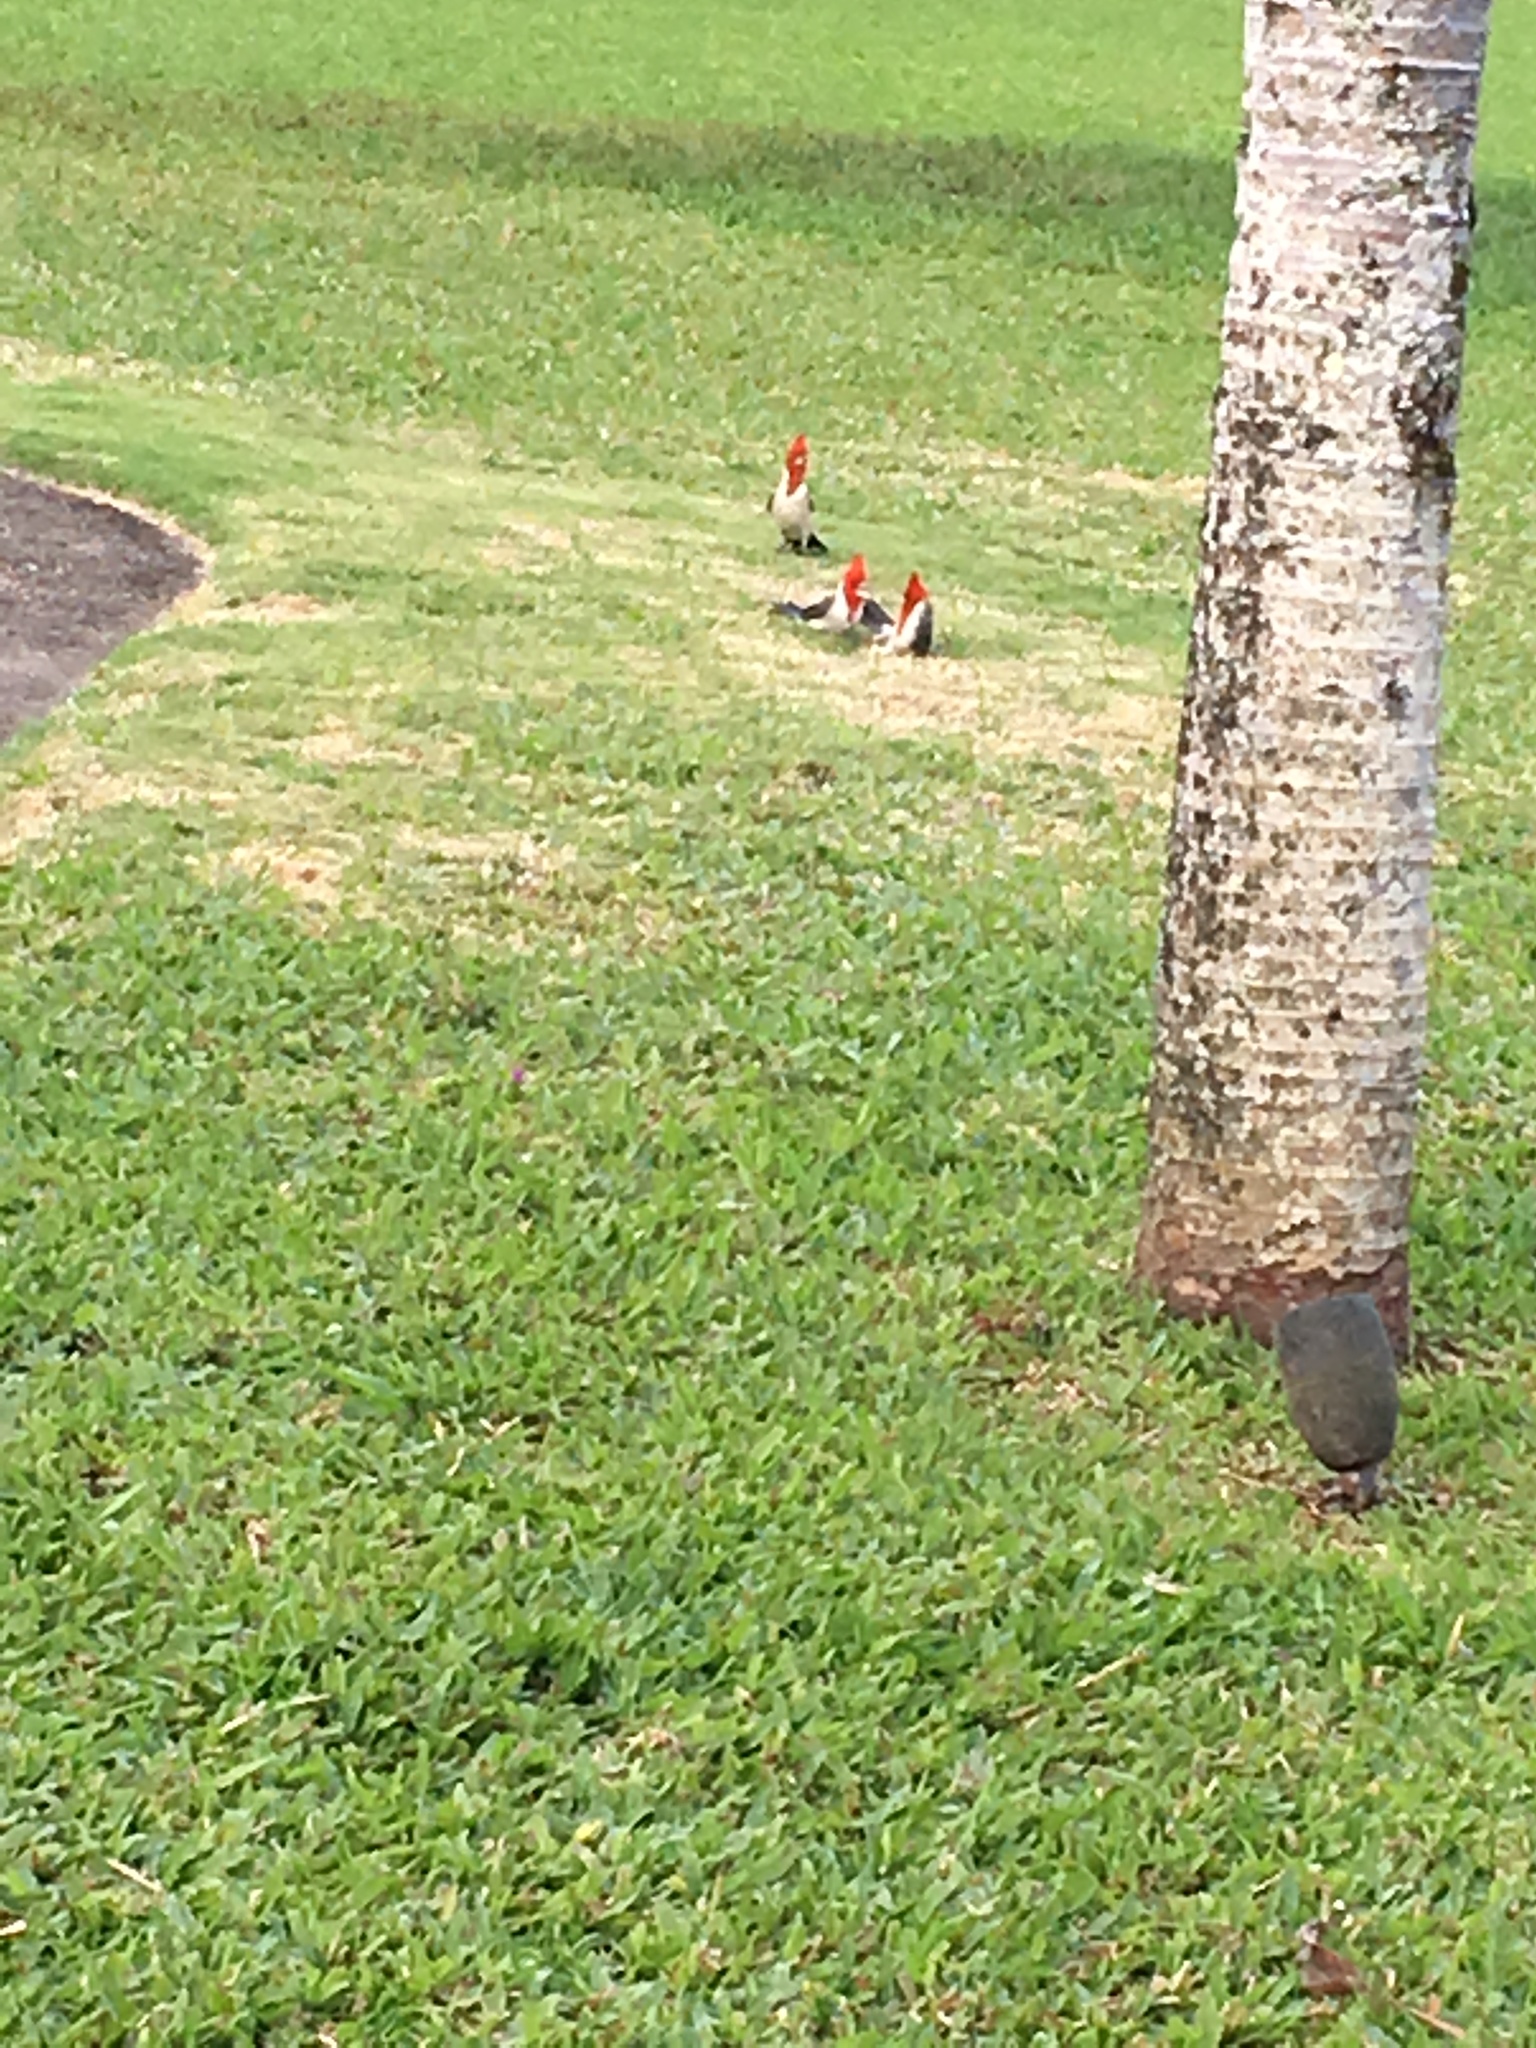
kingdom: Animalia
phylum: Chordata
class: Aves
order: Passeriformes
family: Thraupidae
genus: Paroaria
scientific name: Paroaria coronata
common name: Red-crested cardinal
